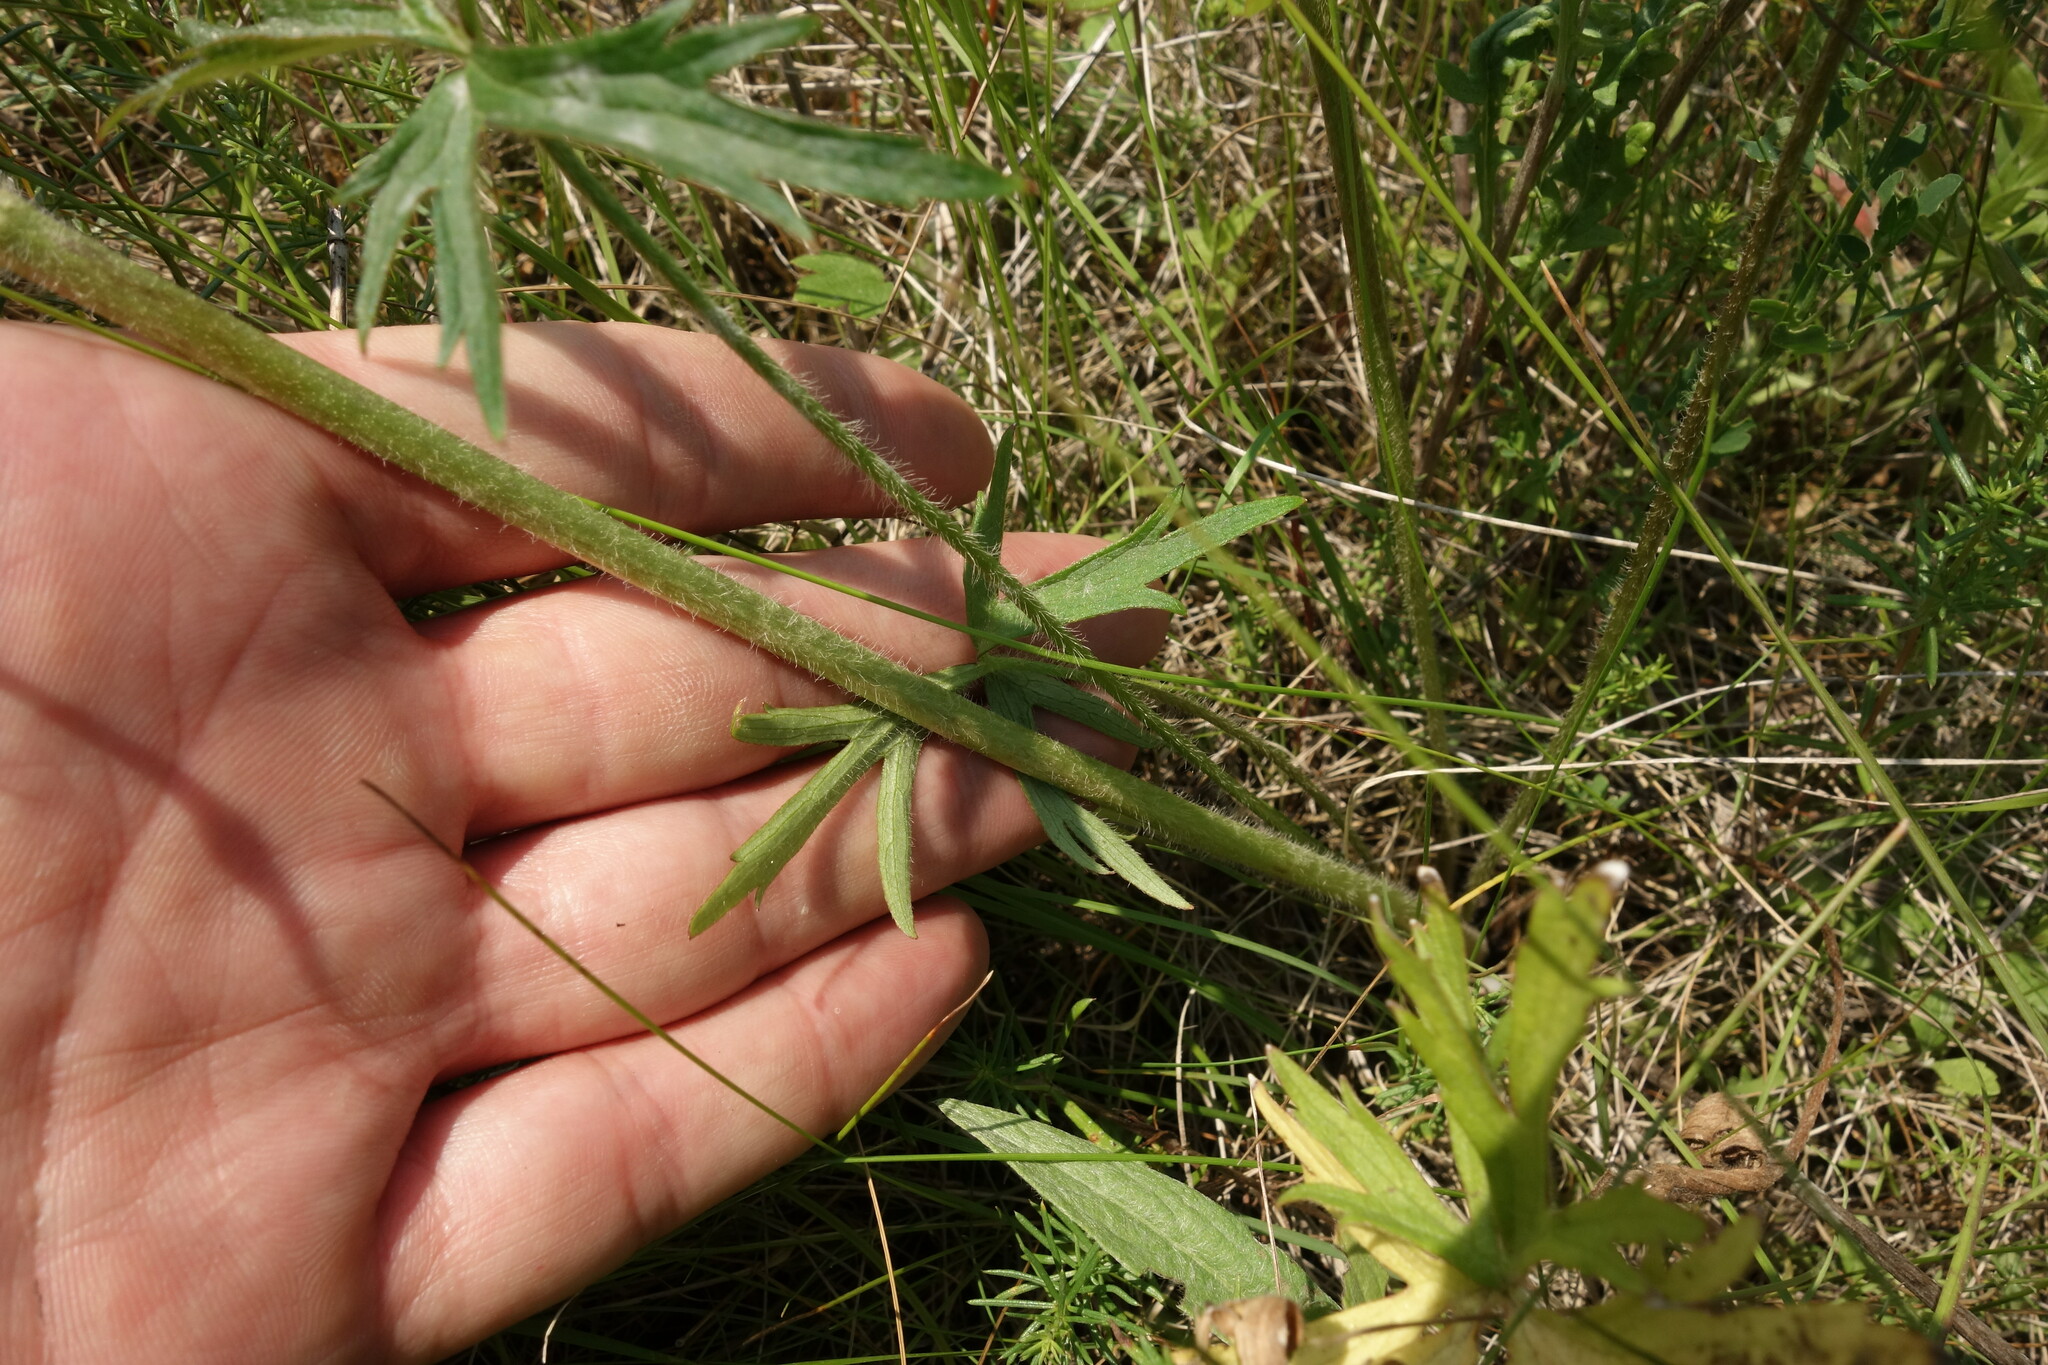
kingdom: Plantae
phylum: Tracheophyta
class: Magnoliopsida
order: Ranunculales
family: Ranunculaceae
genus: Ranunculus
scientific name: Ranunculus polyanthemos
